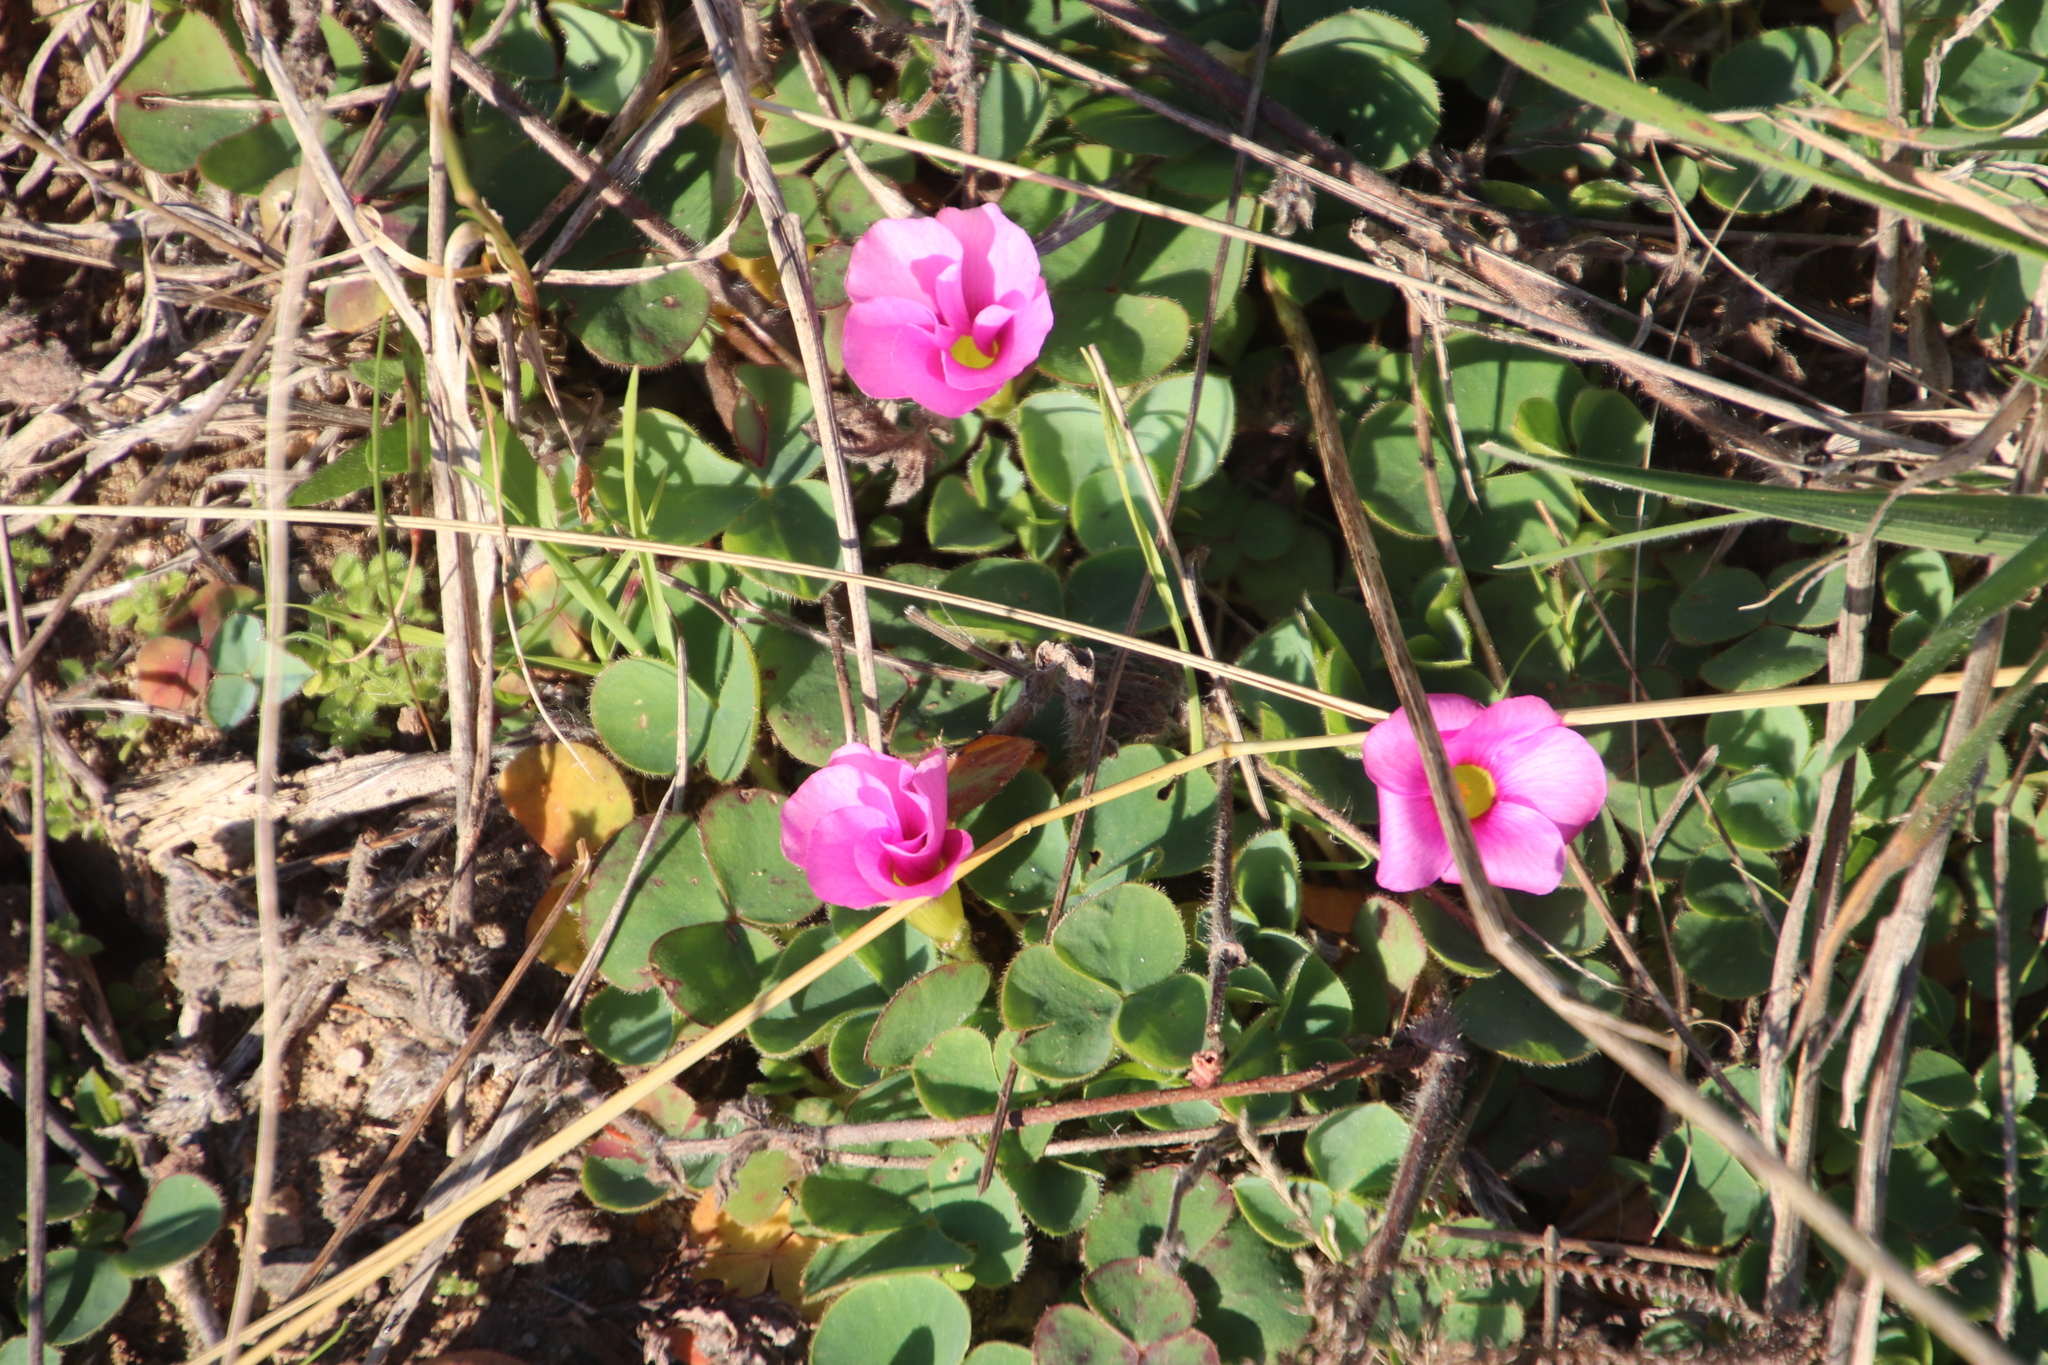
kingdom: Plantae
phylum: Tracheophyta
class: Magnoliopsida
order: Oxalidales
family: Oxalidaceae
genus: Oxalis
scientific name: Oxalis purpurea
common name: Purple woodsorrel
